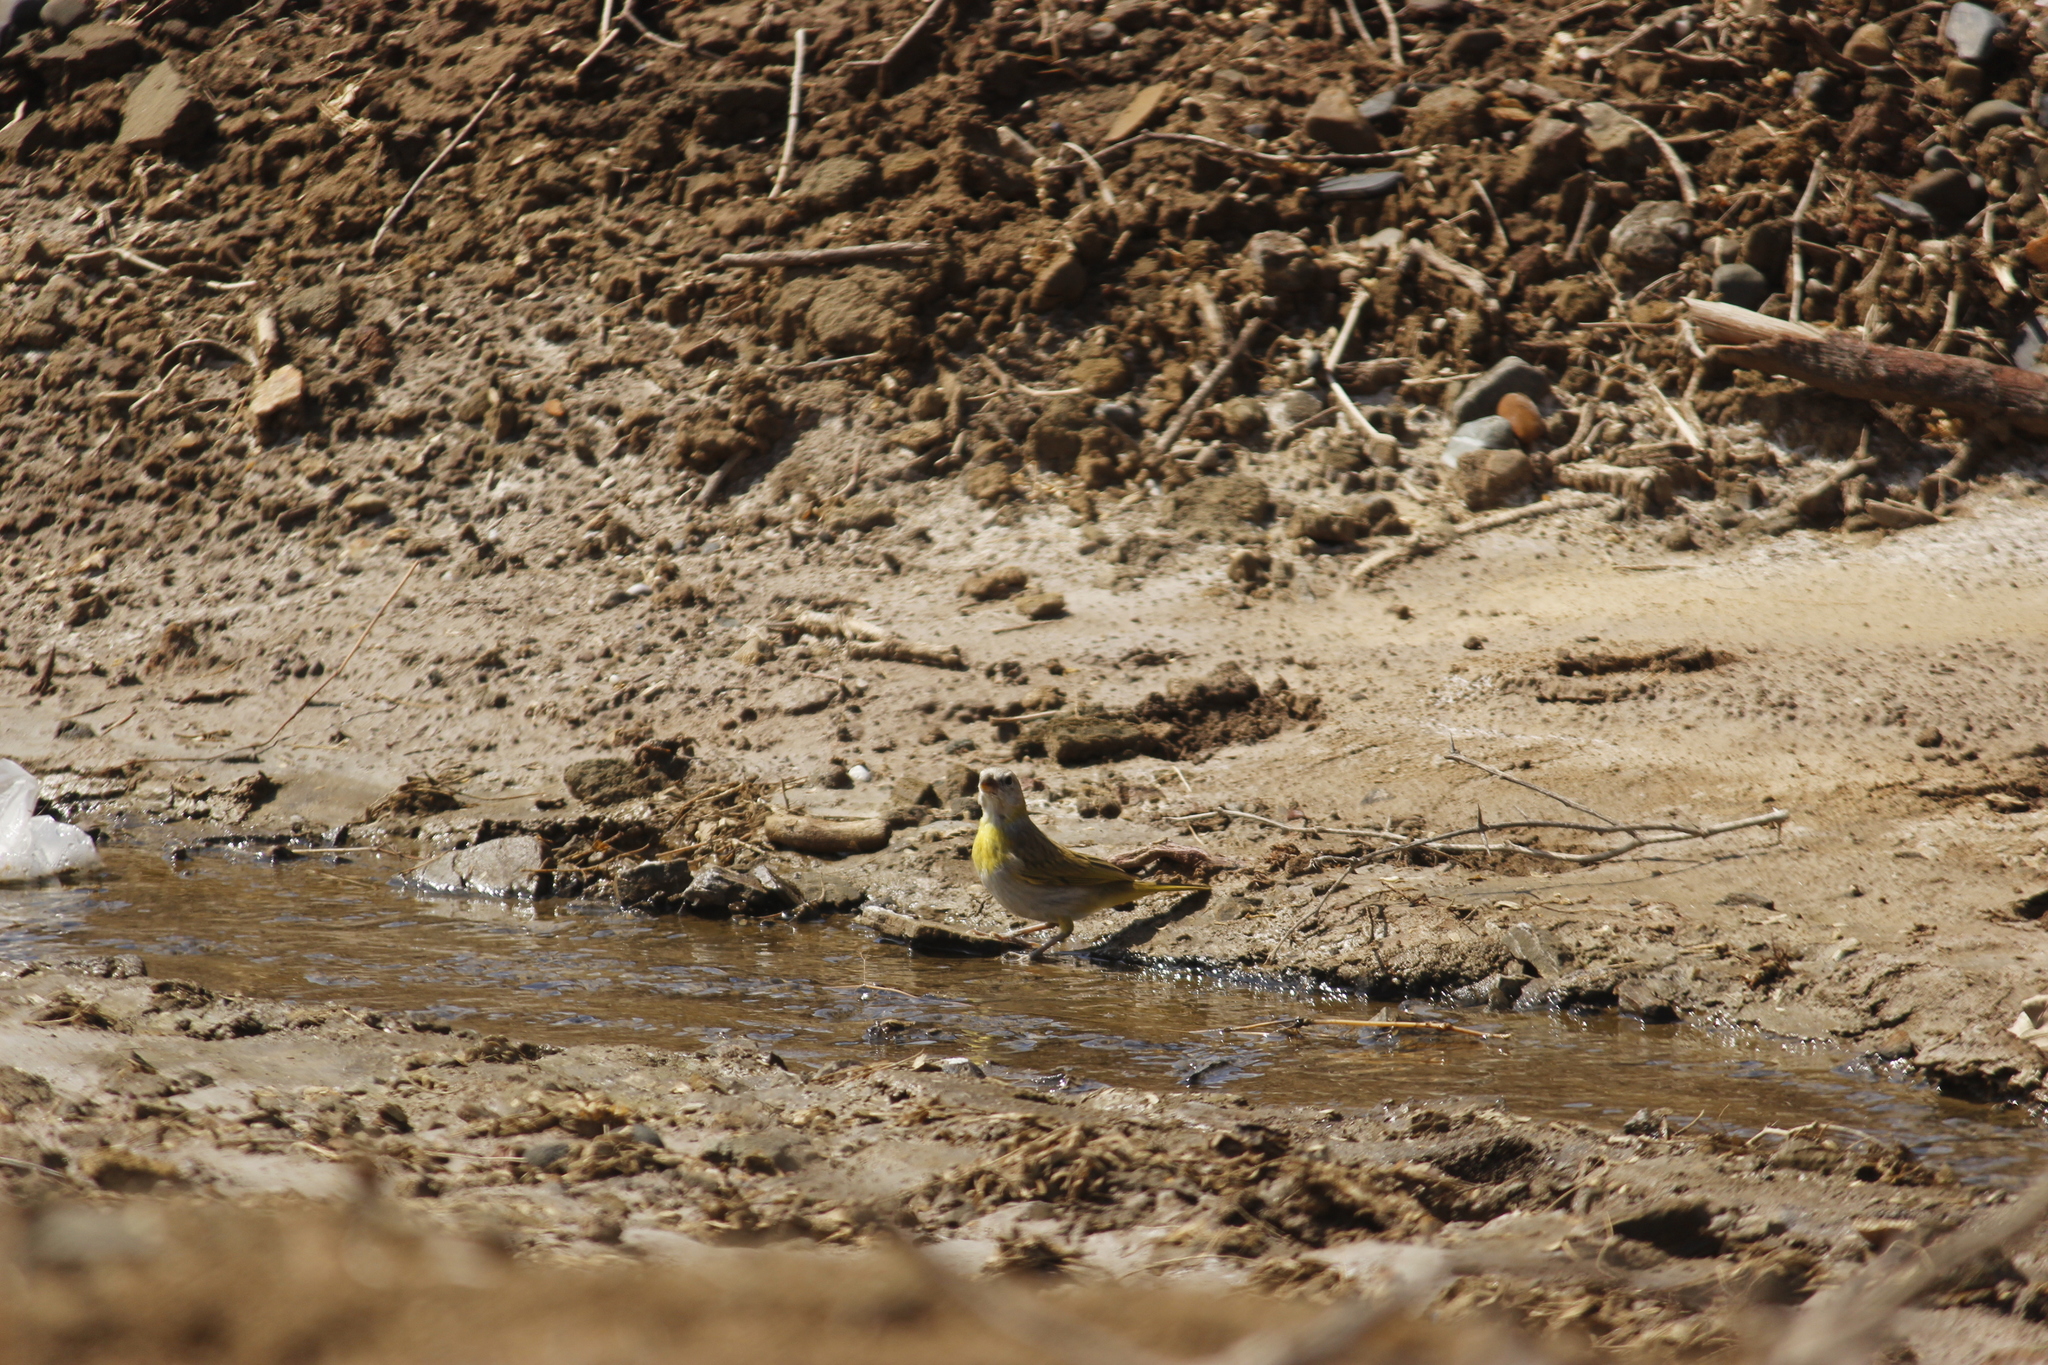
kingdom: Animalia
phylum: Chordata
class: Aves
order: Passeriformes
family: Thraupidae
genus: Sicalis
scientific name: Sicalis flaveola
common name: Saffron finch
